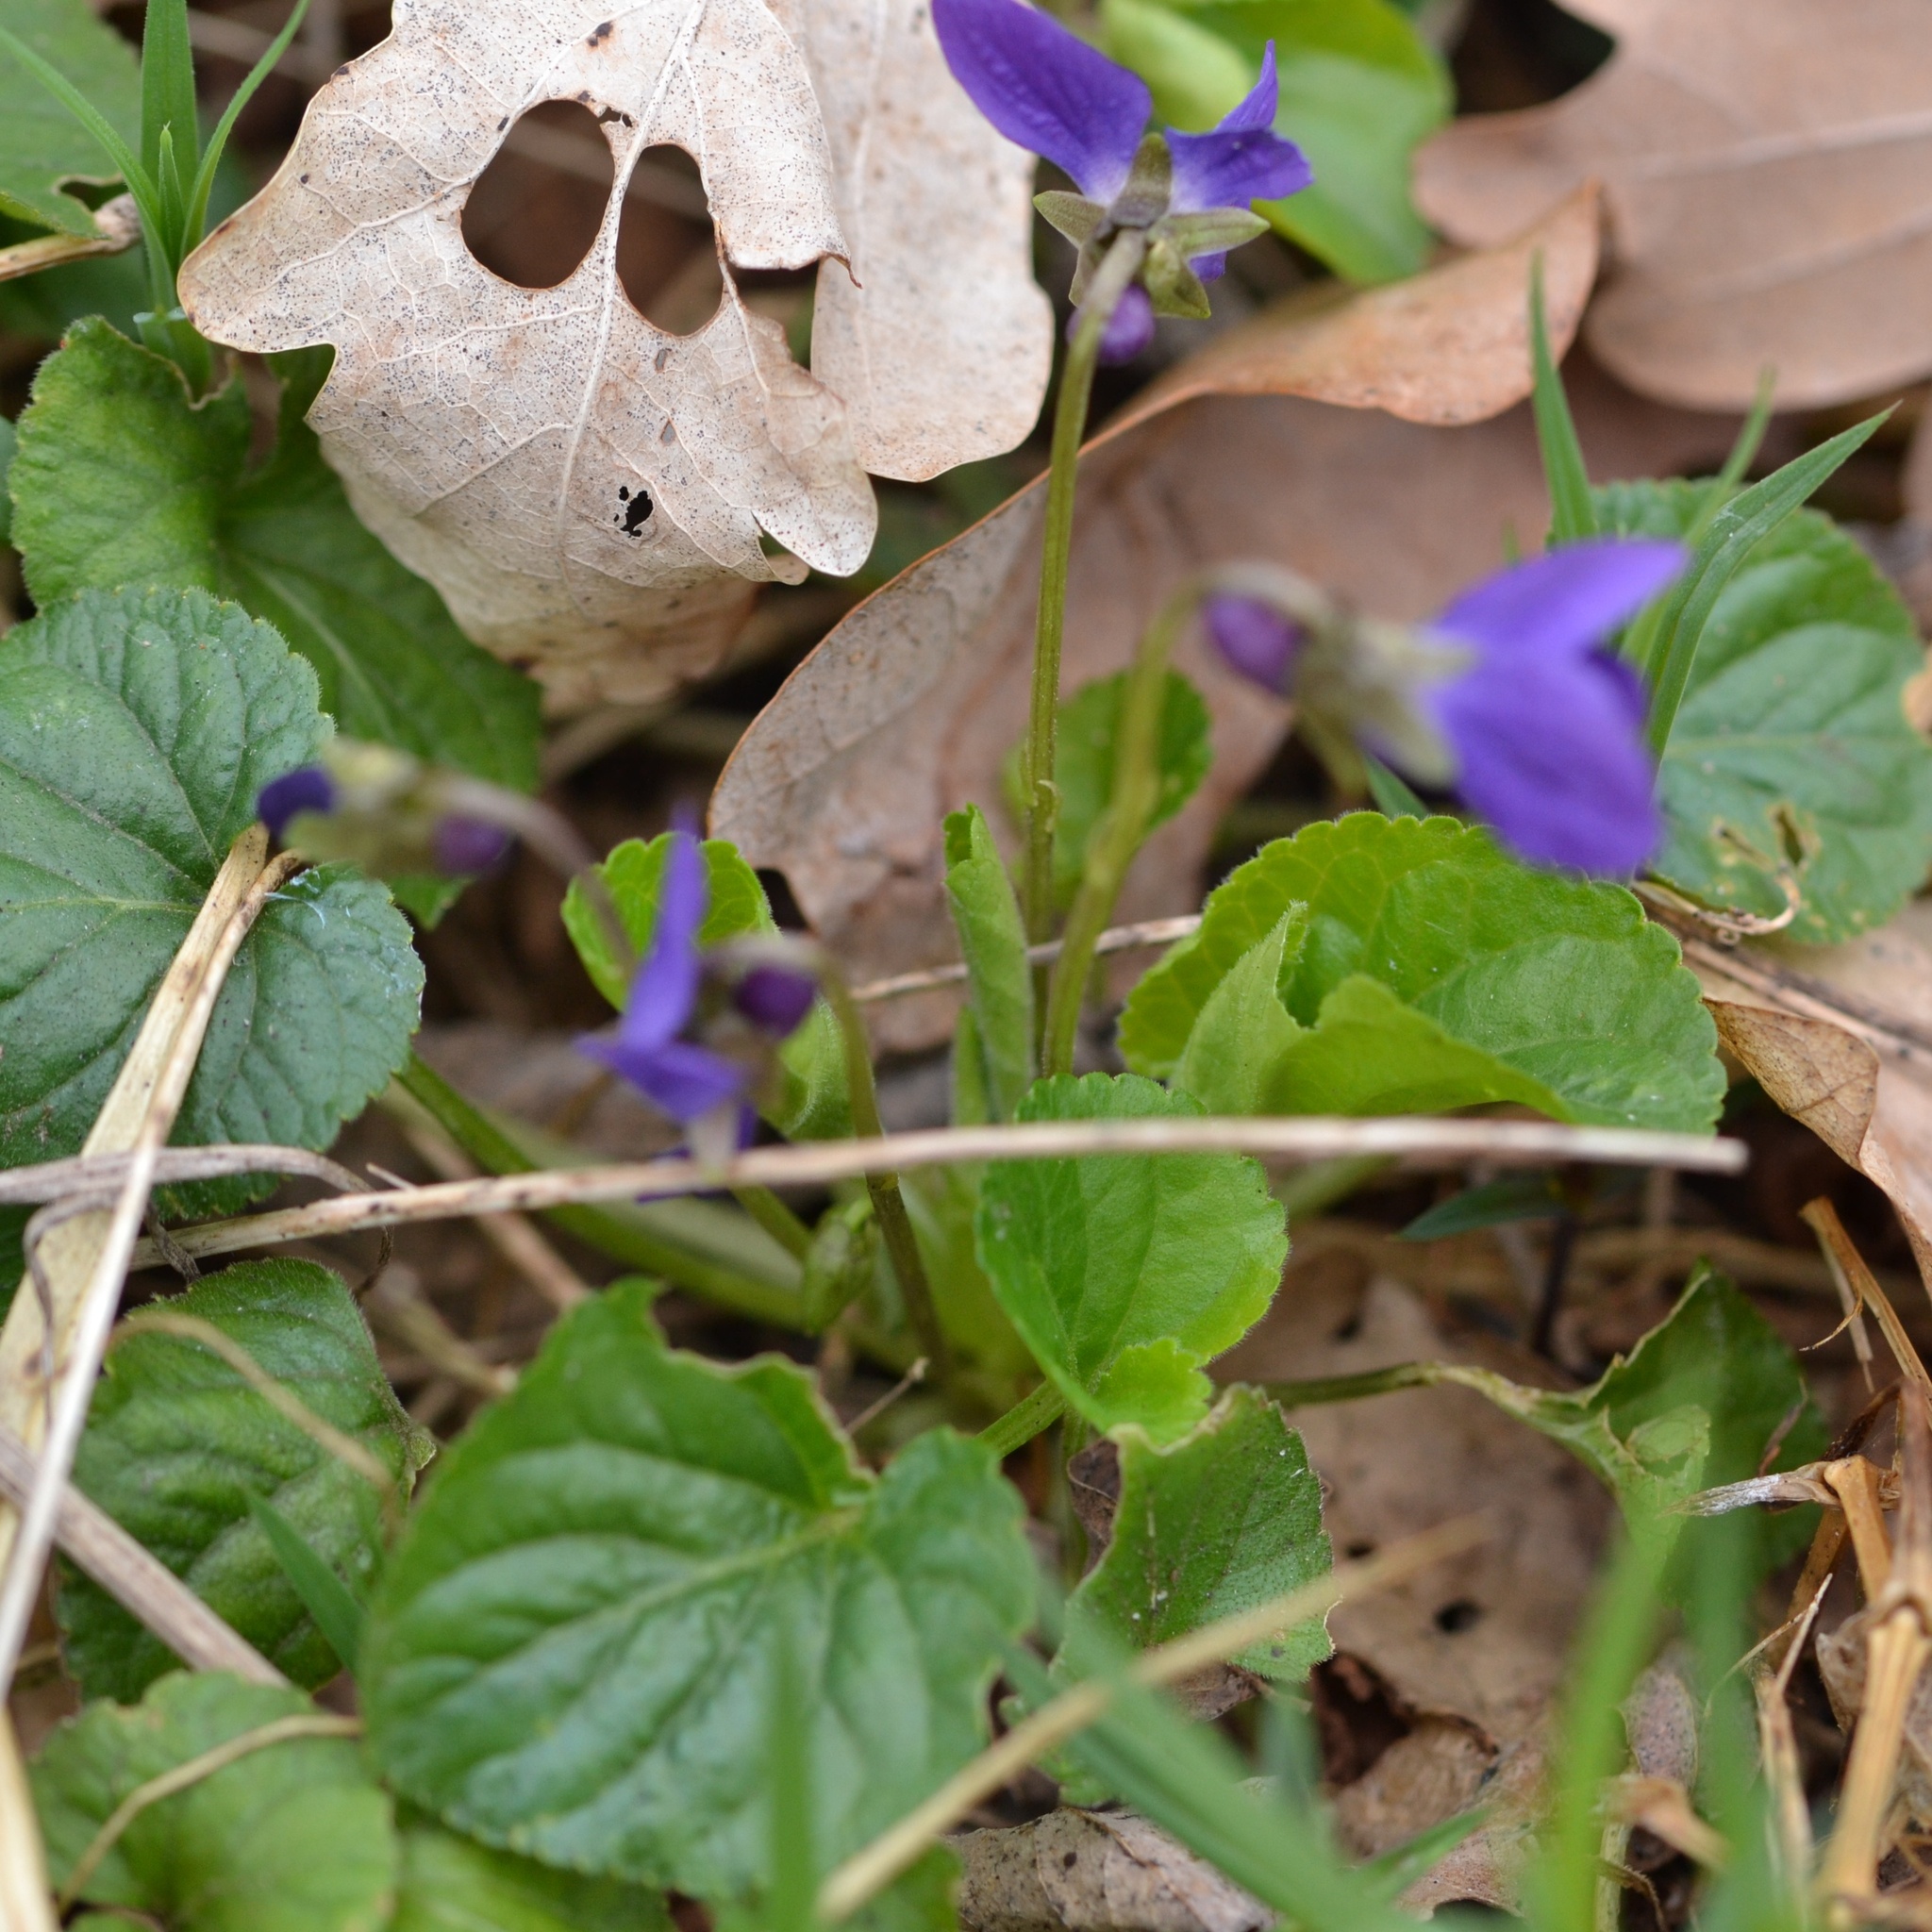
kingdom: Plantae
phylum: Tracheophyta
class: Magnoliopsida
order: Malpighiales
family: Violaceae
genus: Viola
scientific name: Viola odorata
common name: Sweet violet
